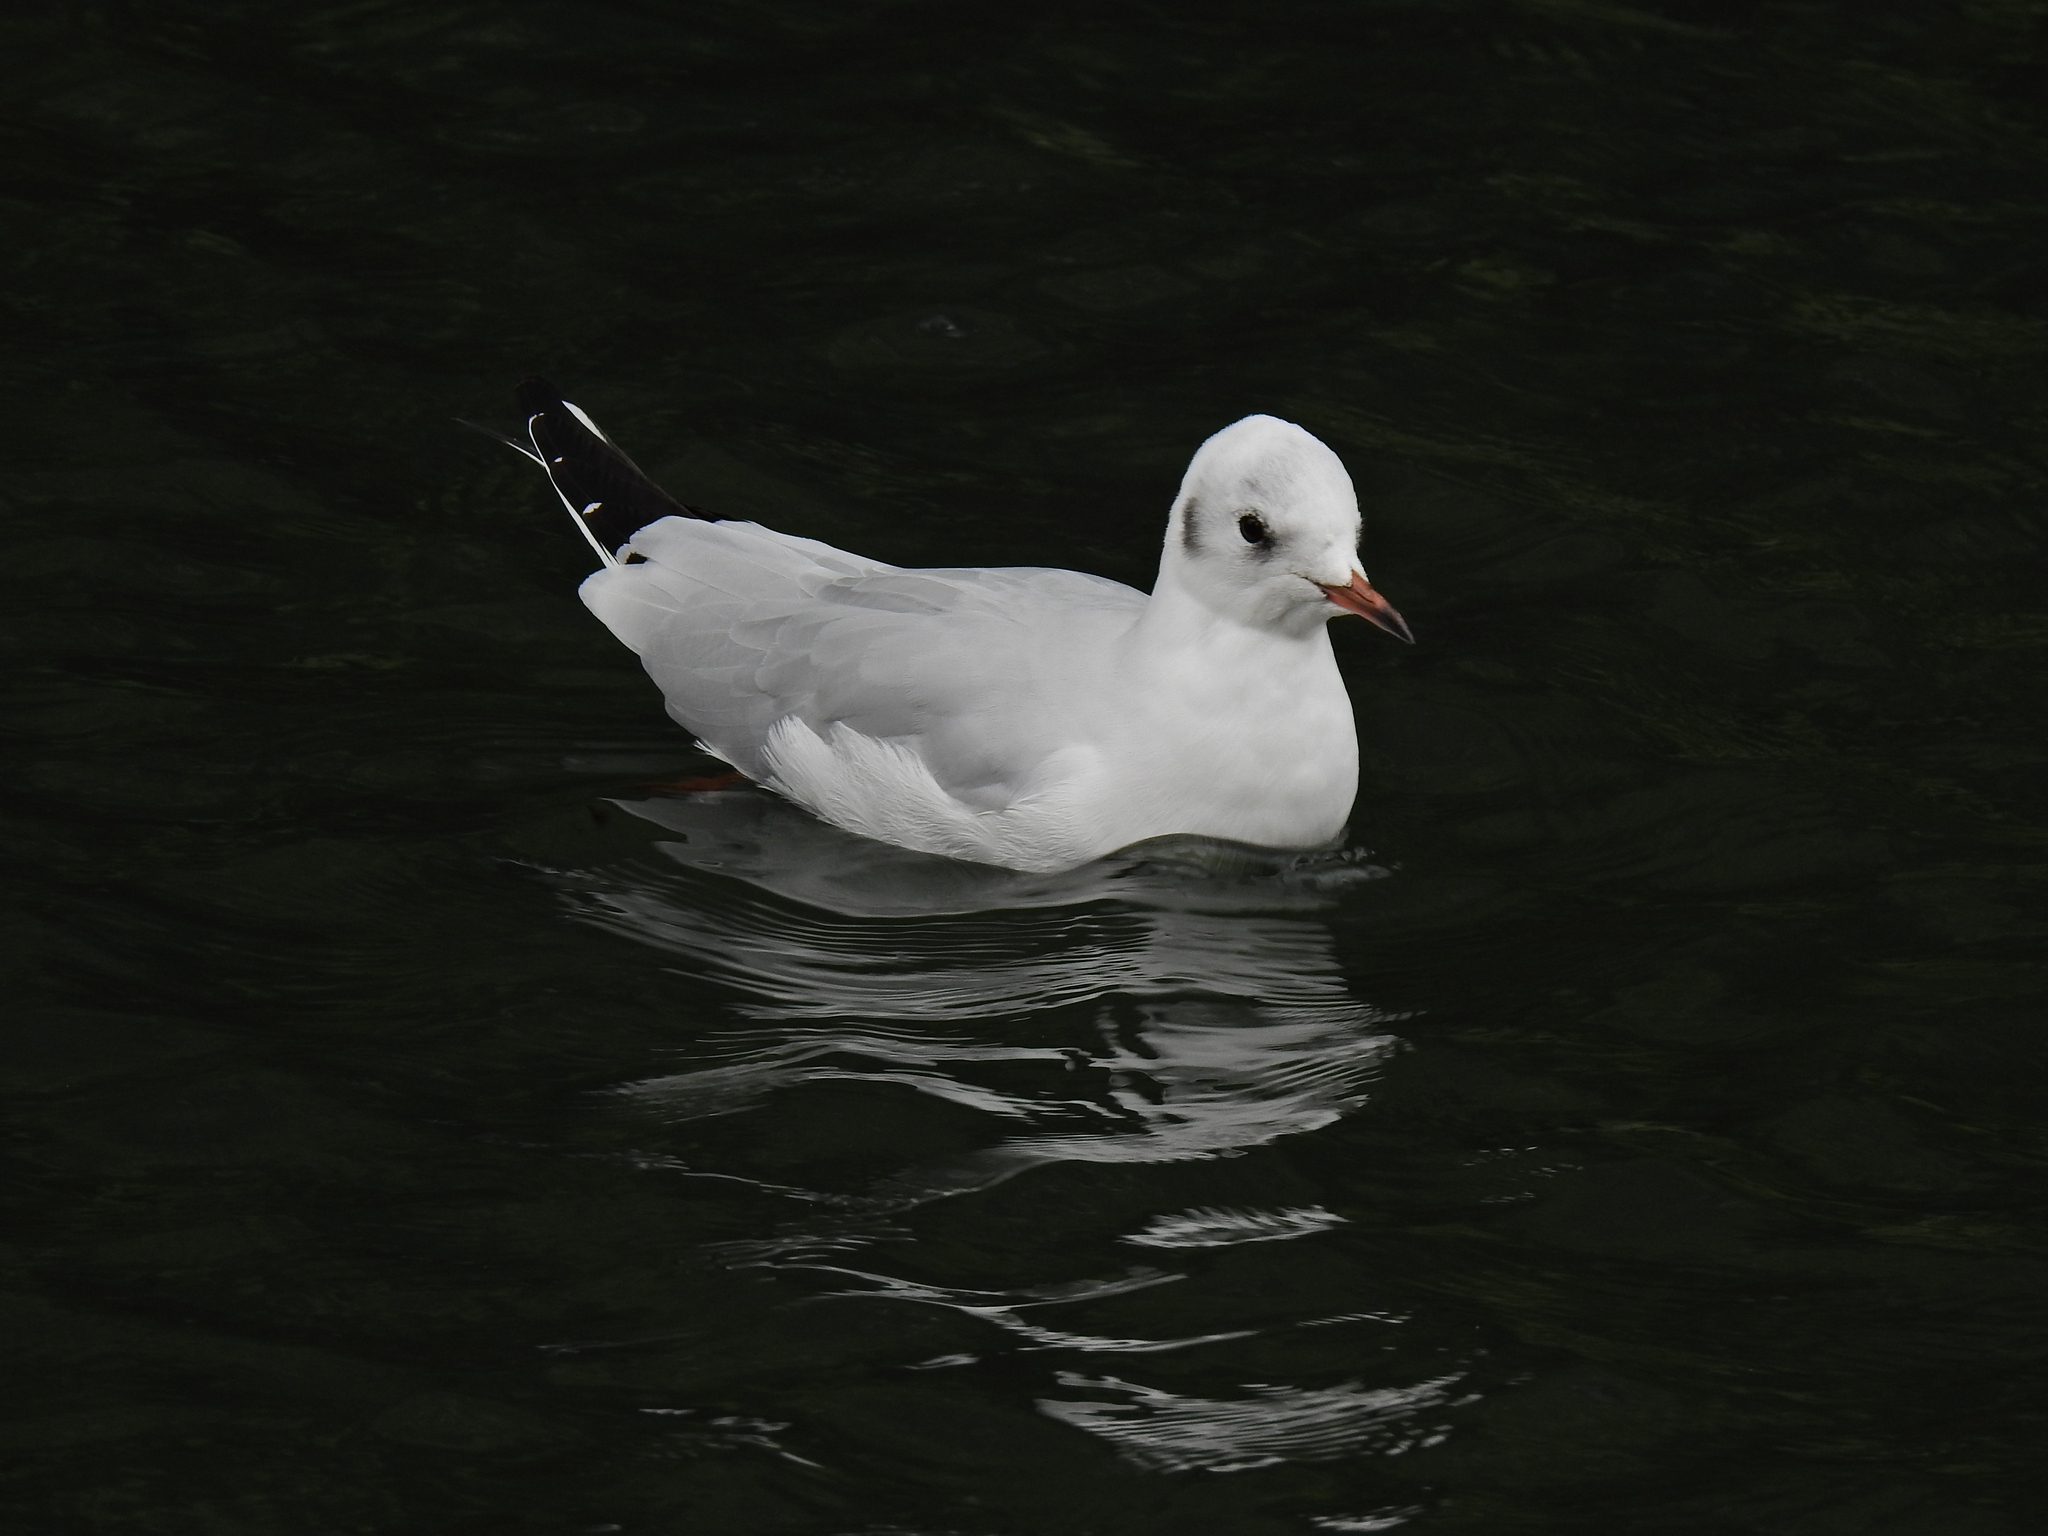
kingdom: Animalia
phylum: Chordata
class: Aves
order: Charadriiformes
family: Laridae
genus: Chroicocephalus
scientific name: Chroicocephalus ridibundus
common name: Black-headed gull
